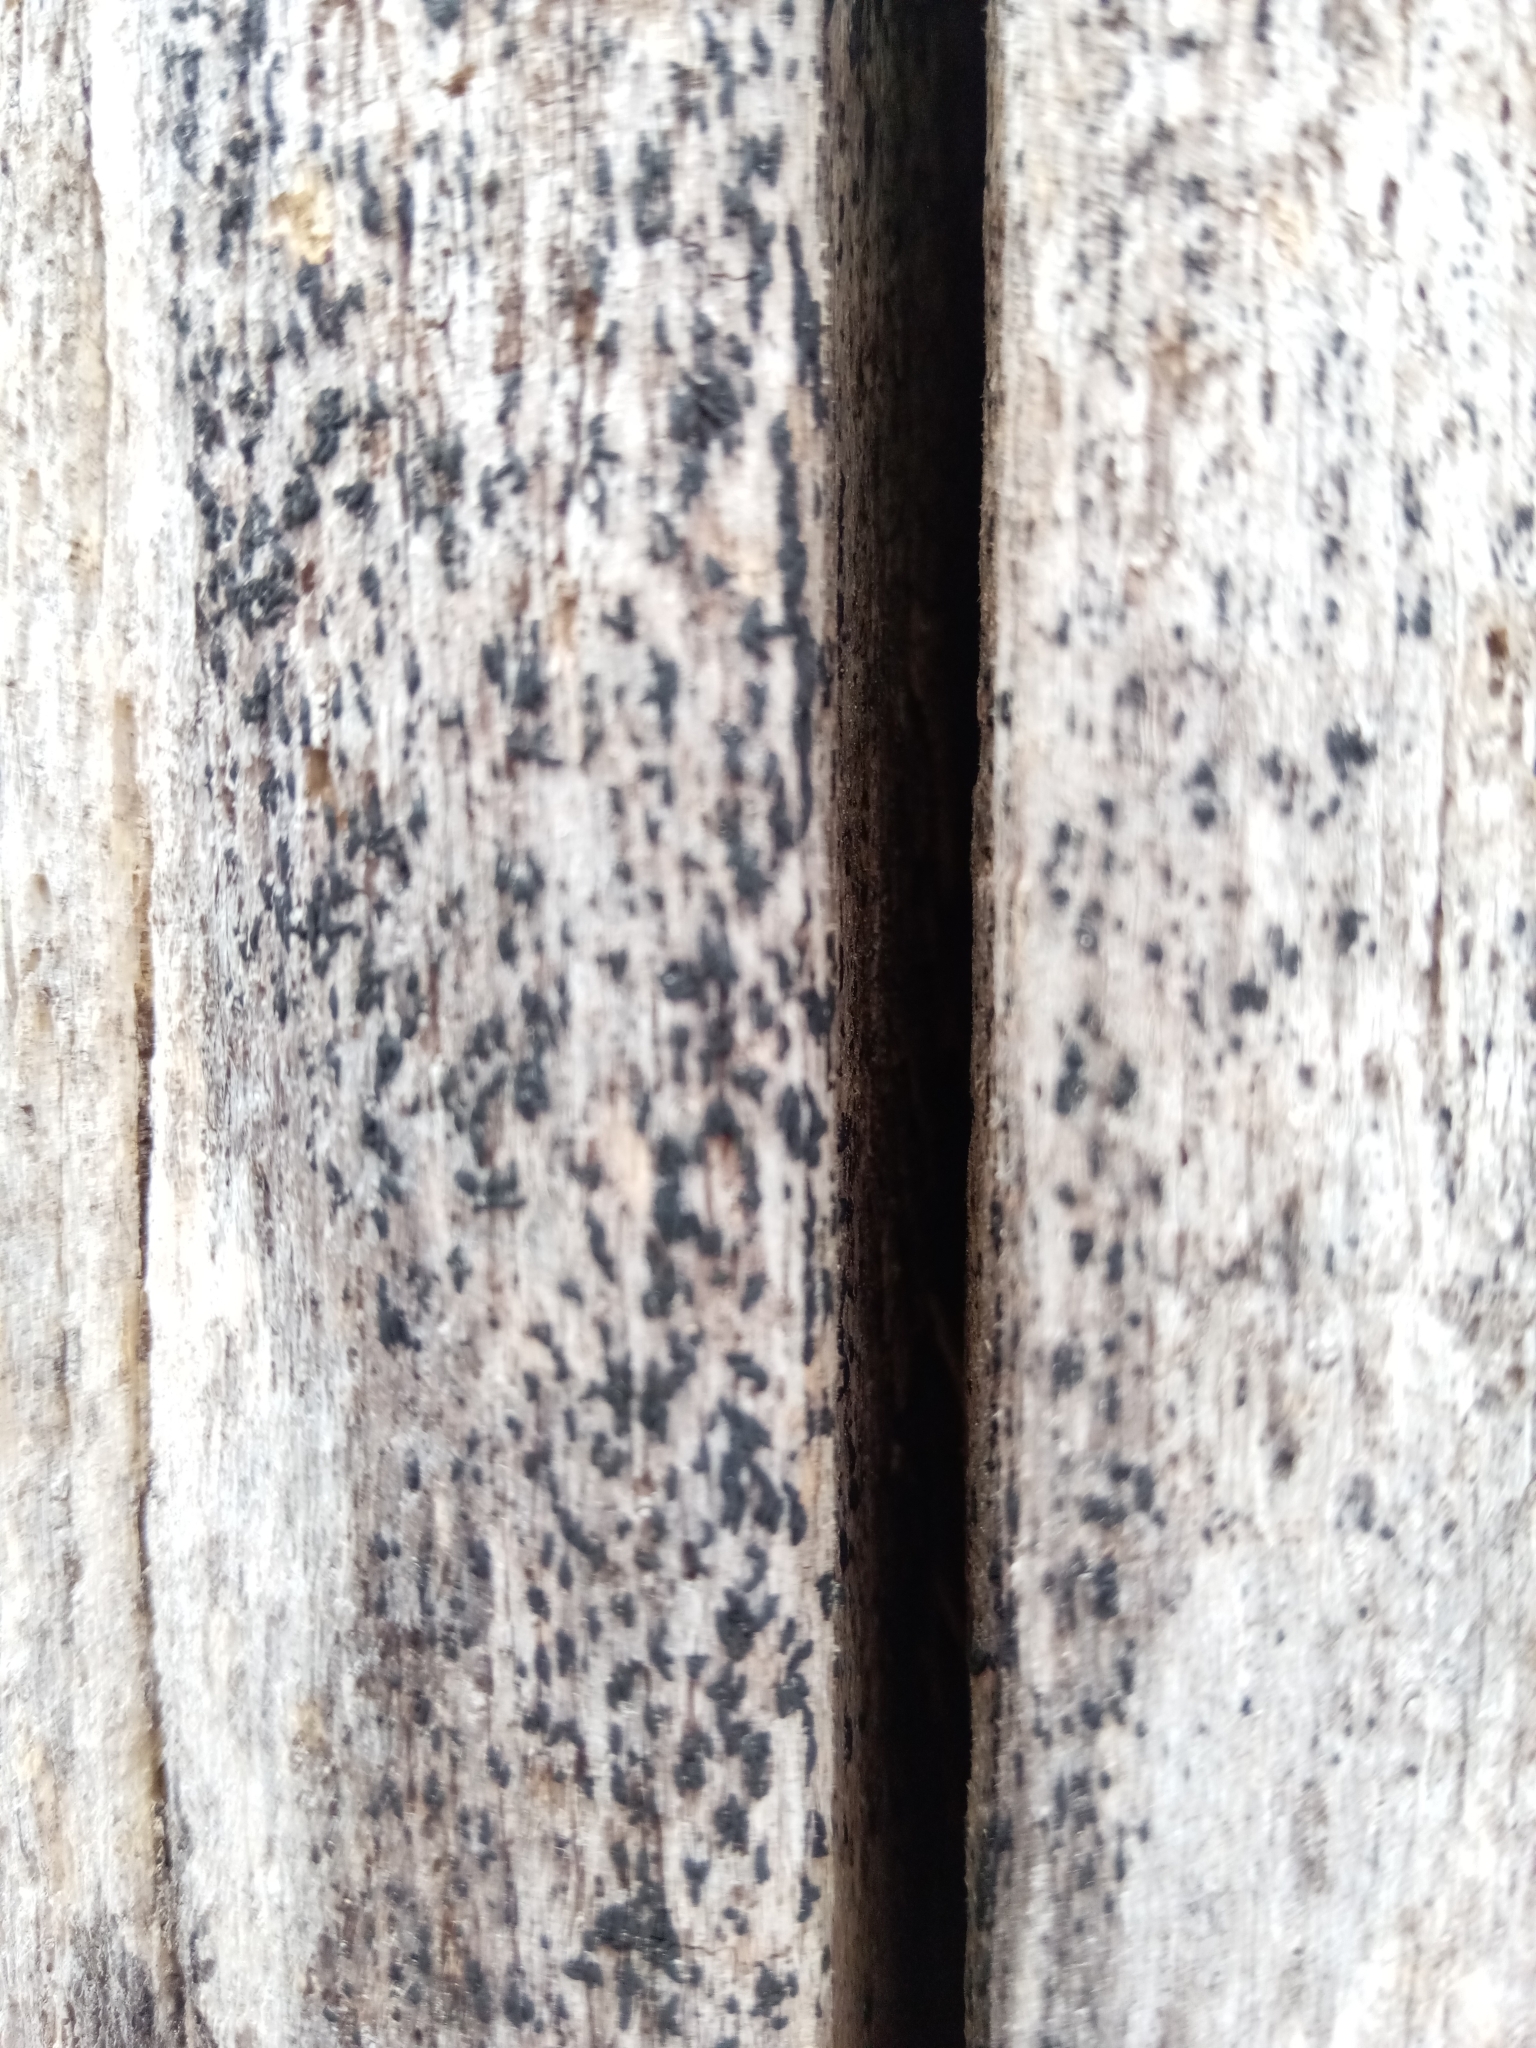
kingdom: Fungi
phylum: Ascomycota
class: Dothideomycetes
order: Hysteriales
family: Hysteriaceae
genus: Hysterobrevium
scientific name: Hysterobrevium mori
